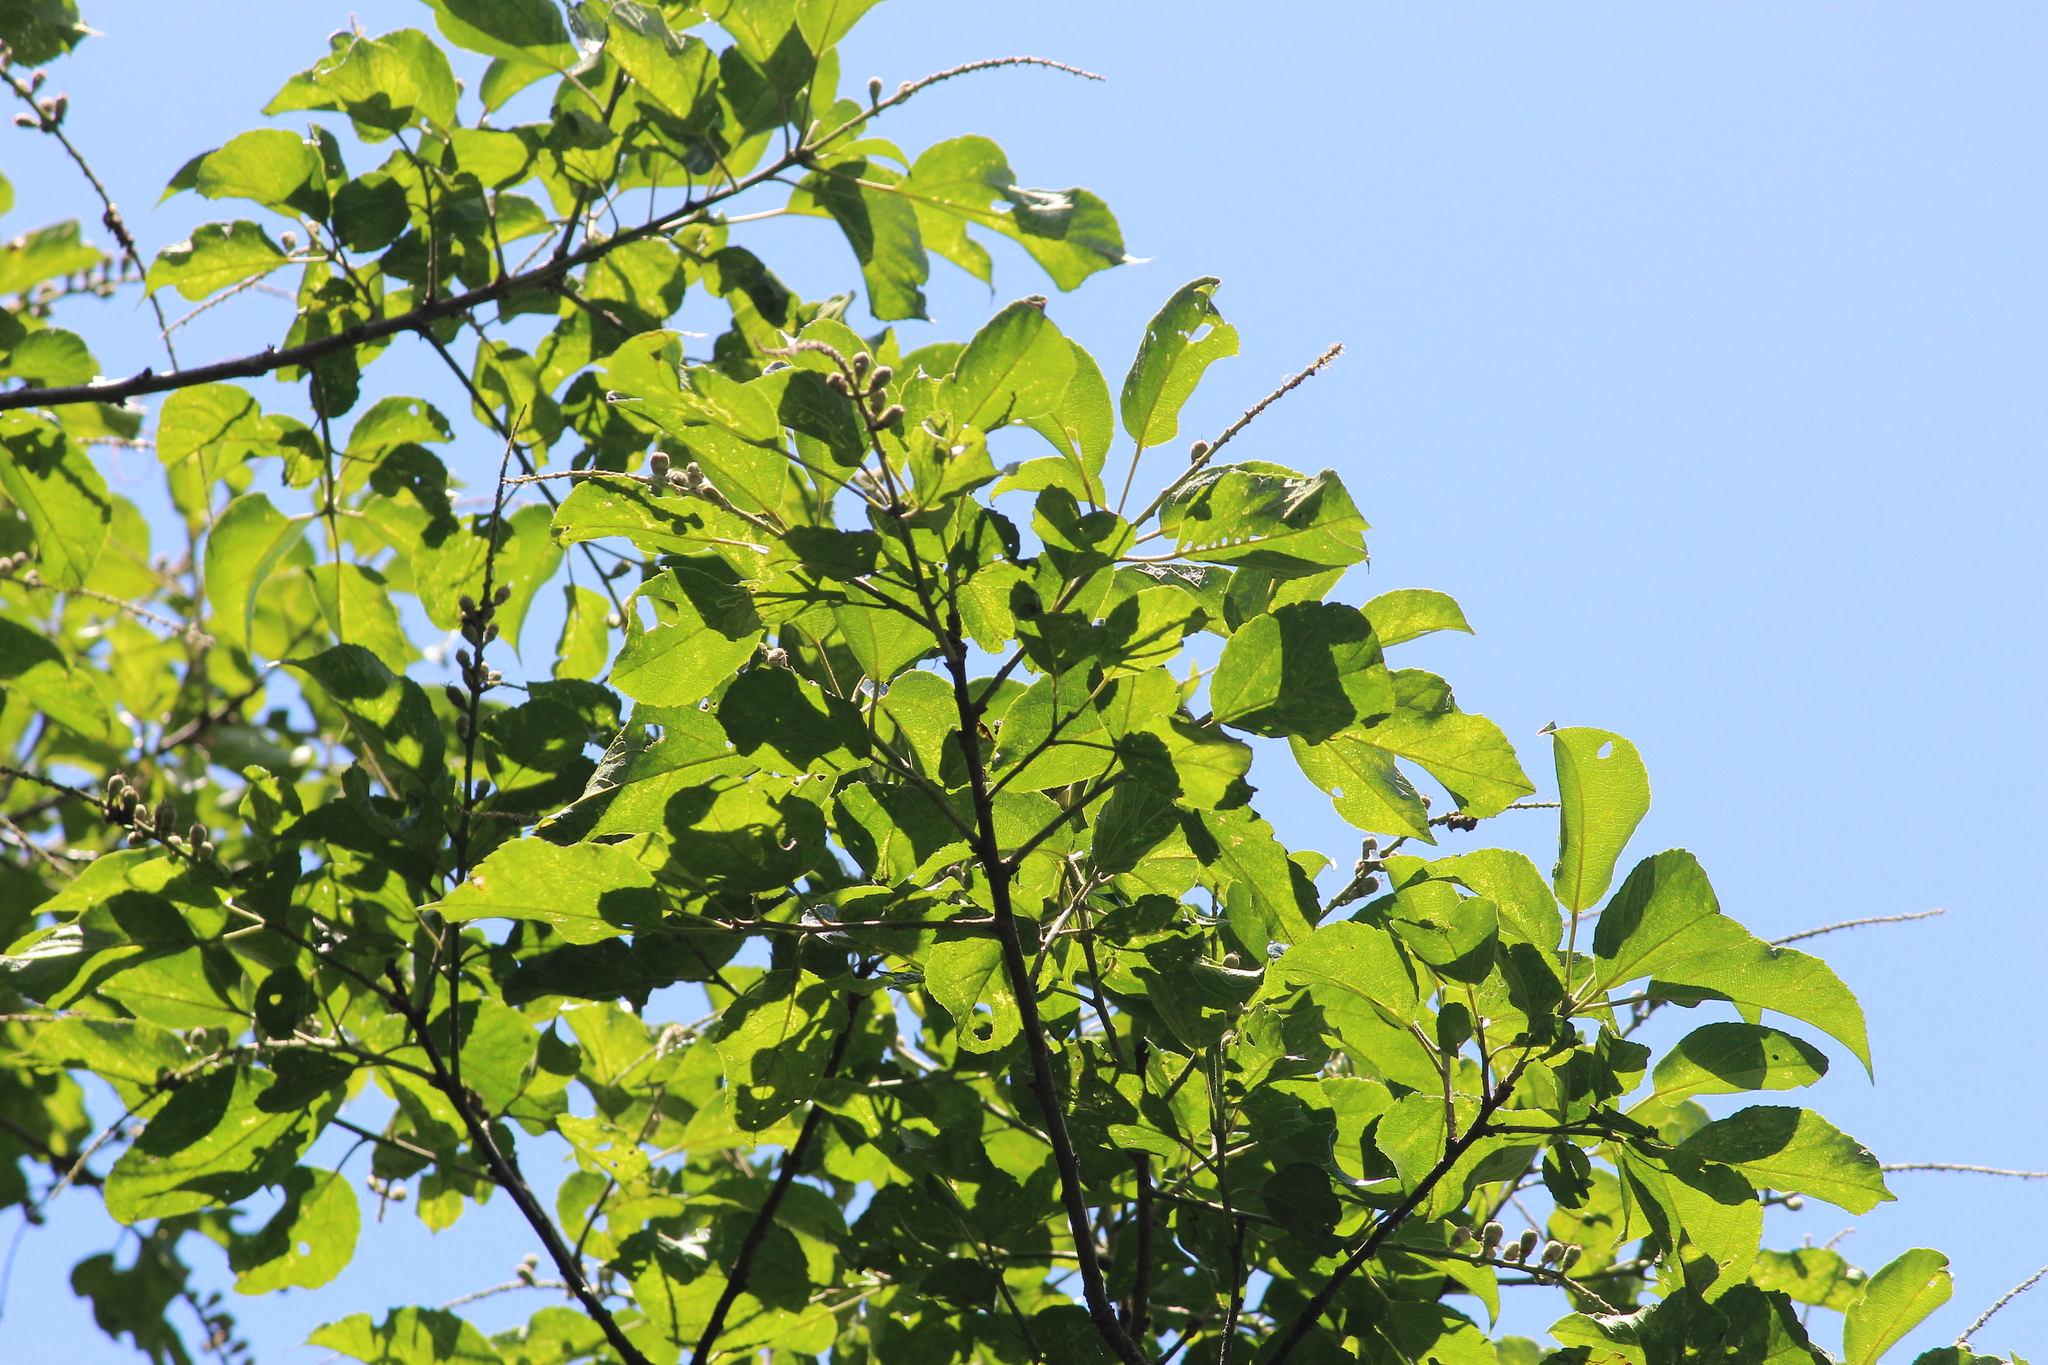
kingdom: Plantae
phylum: Tracheophyta
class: Magnoliopsida
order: Malpighiales
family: Euphorbiaceae
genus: Croton
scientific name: Croton sylvaticus
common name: Forest croton
